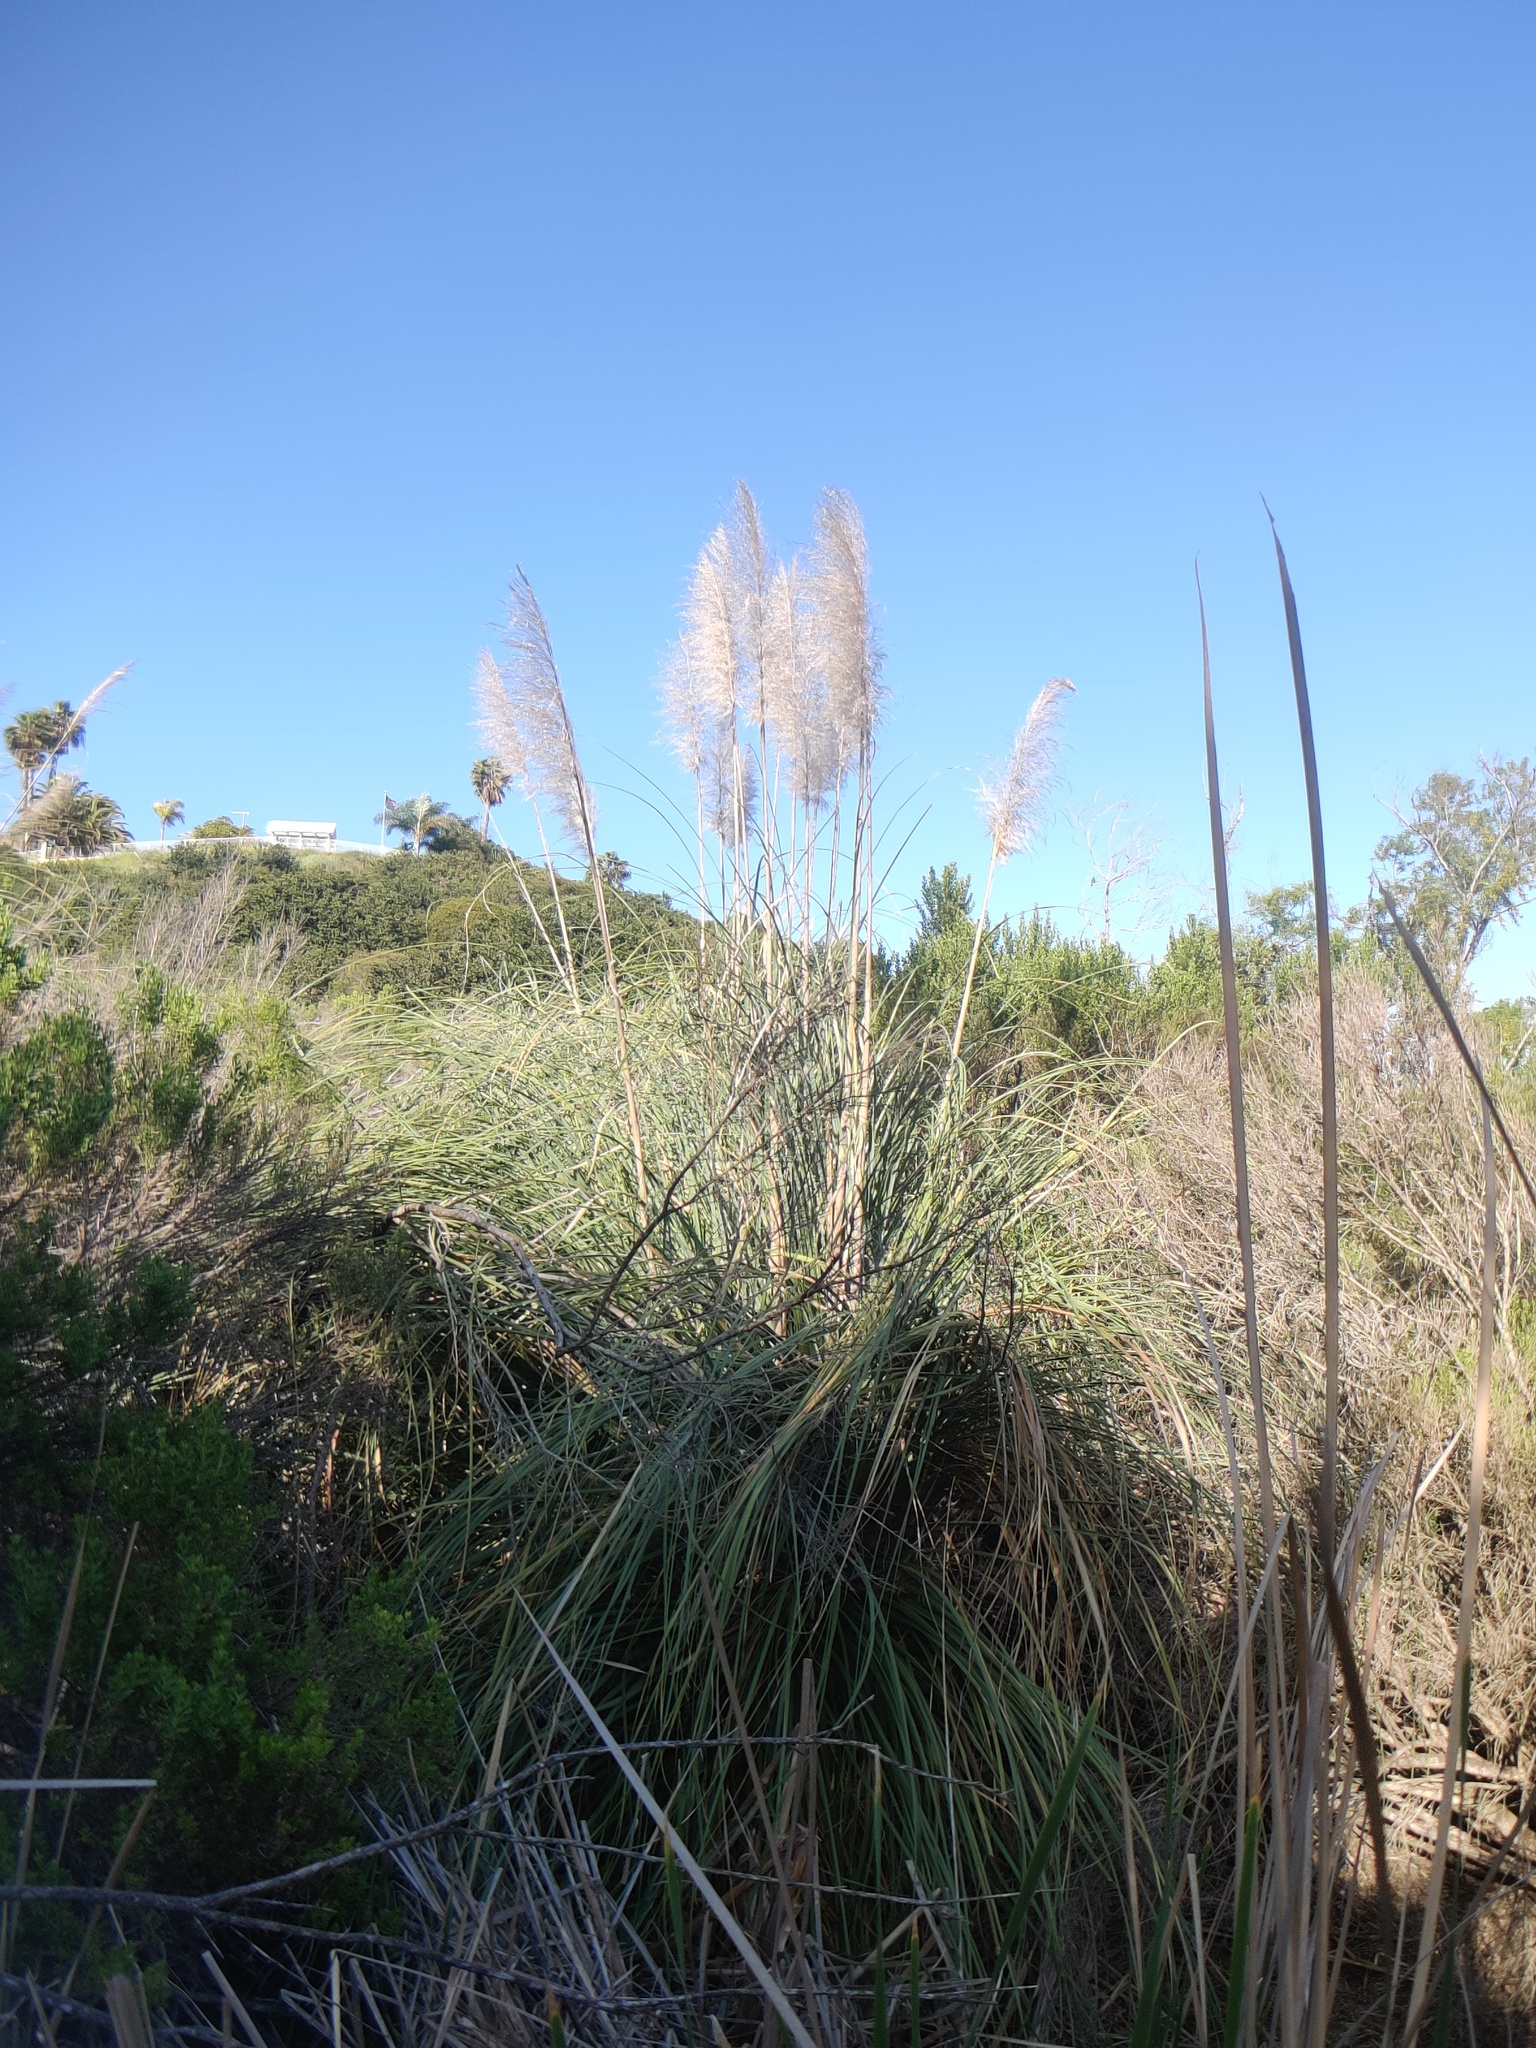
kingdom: Plantae
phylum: Tracheophyta
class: Liliopsida
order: Poales
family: Poaceae
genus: Cortaderia
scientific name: Cortaderia selloana
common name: Uruguayan pampas grass
